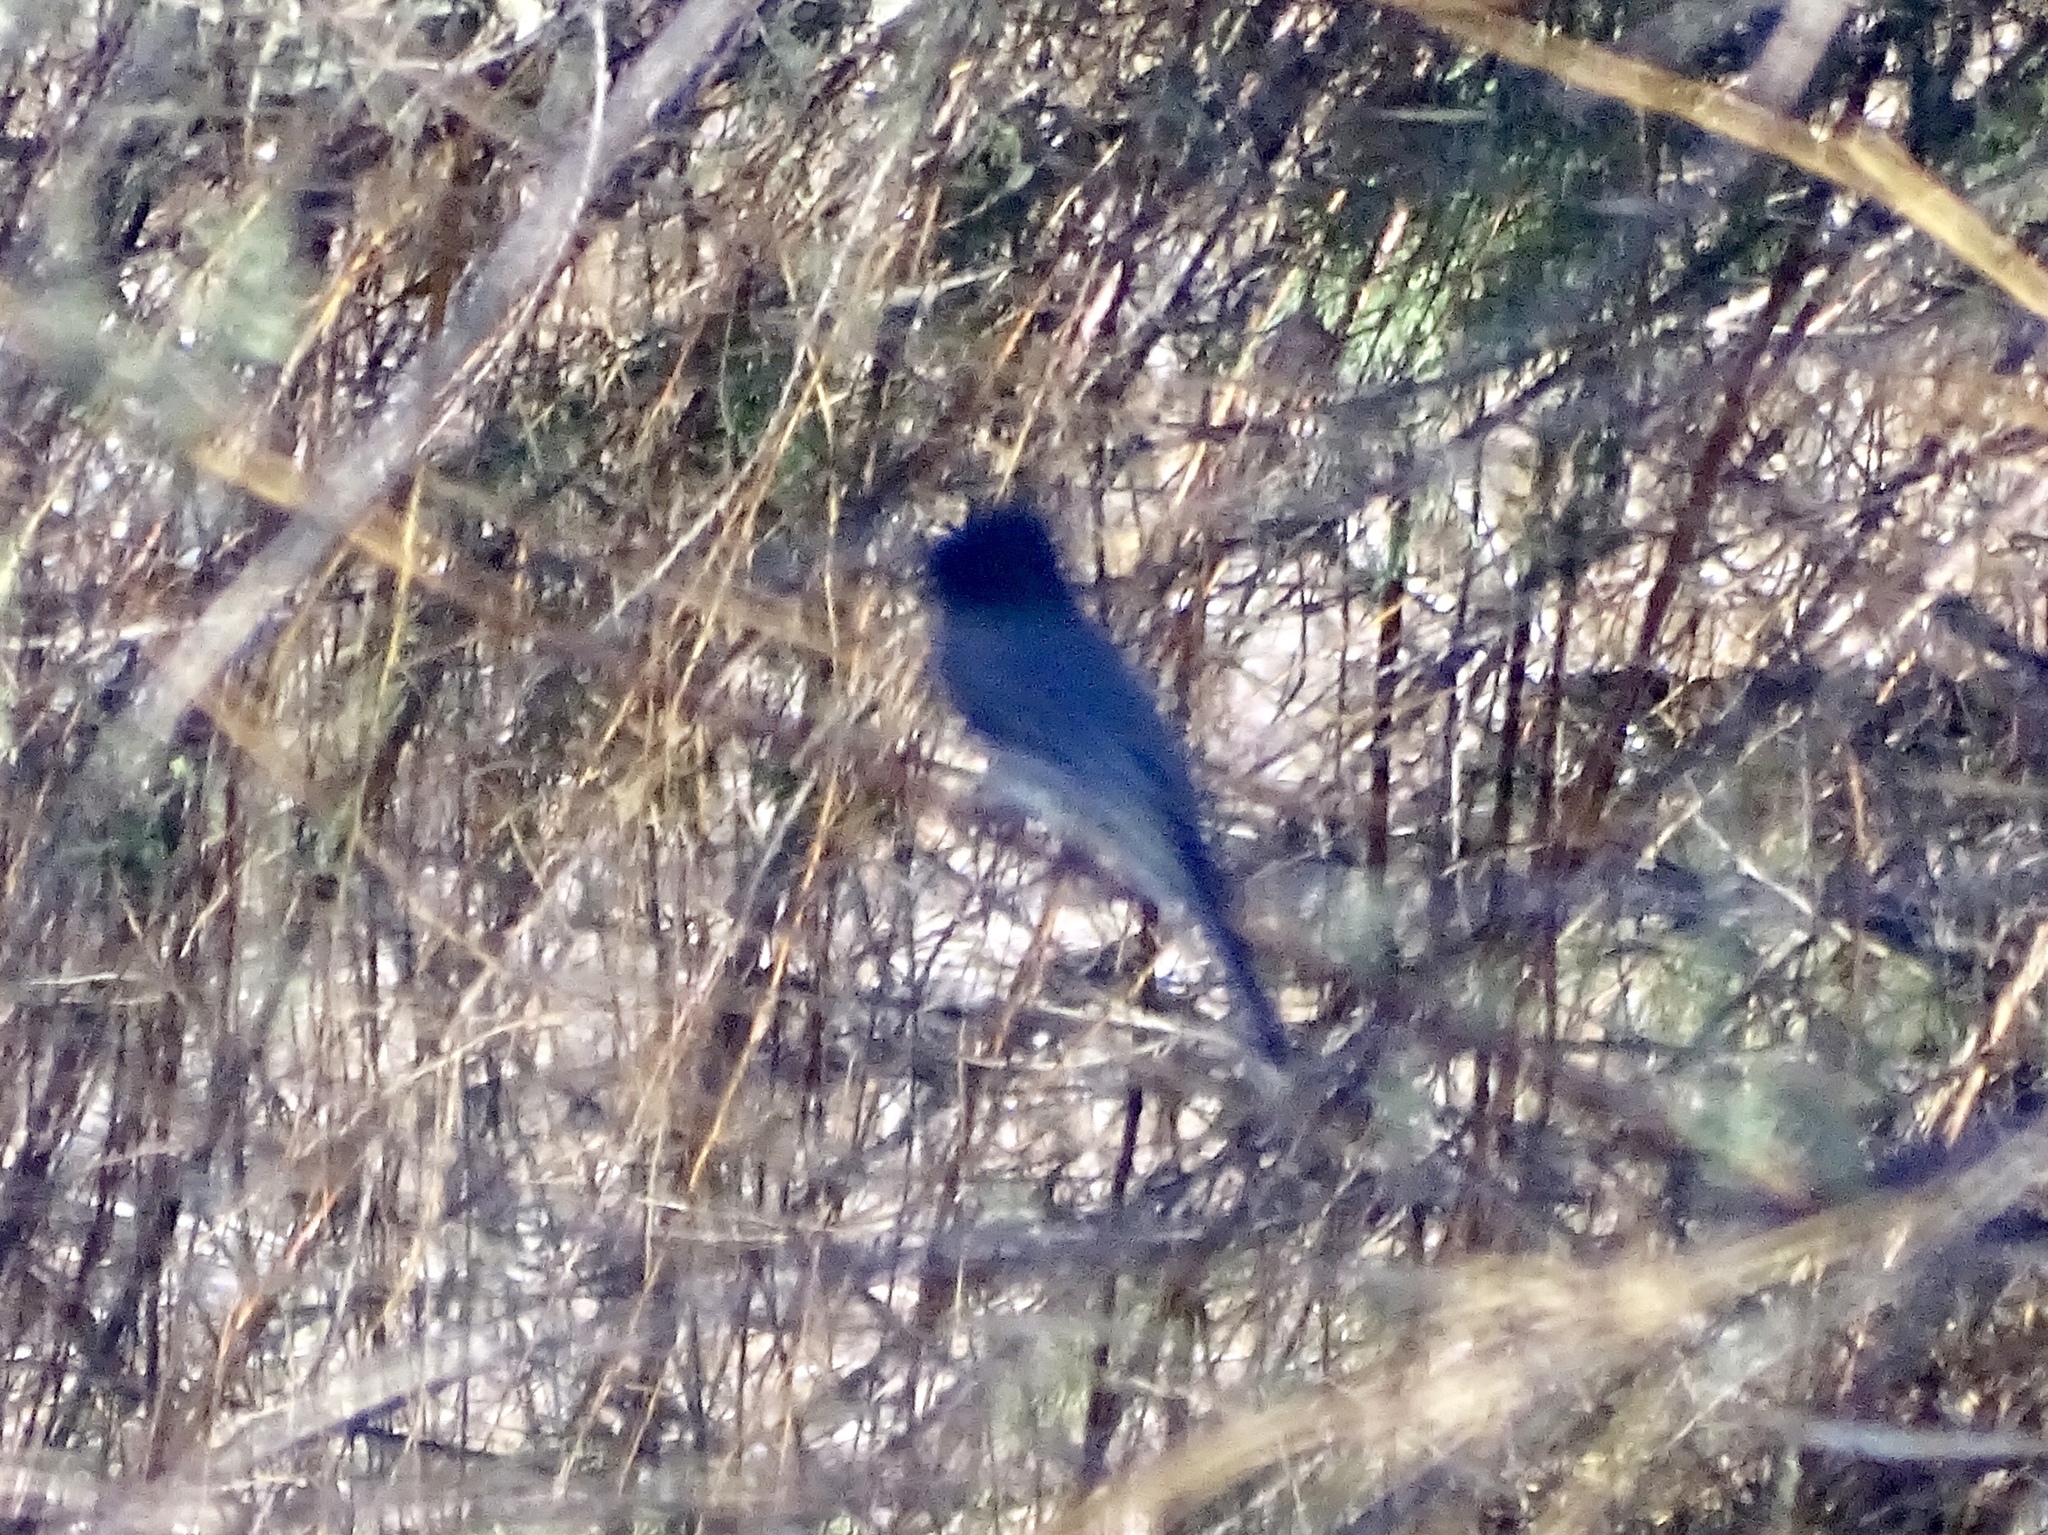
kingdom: Animalia
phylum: Chordata
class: Aves
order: Passeriformes
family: Tyrannidae
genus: Sayornis
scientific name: Sayornis nigricans
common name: Black phoebe
